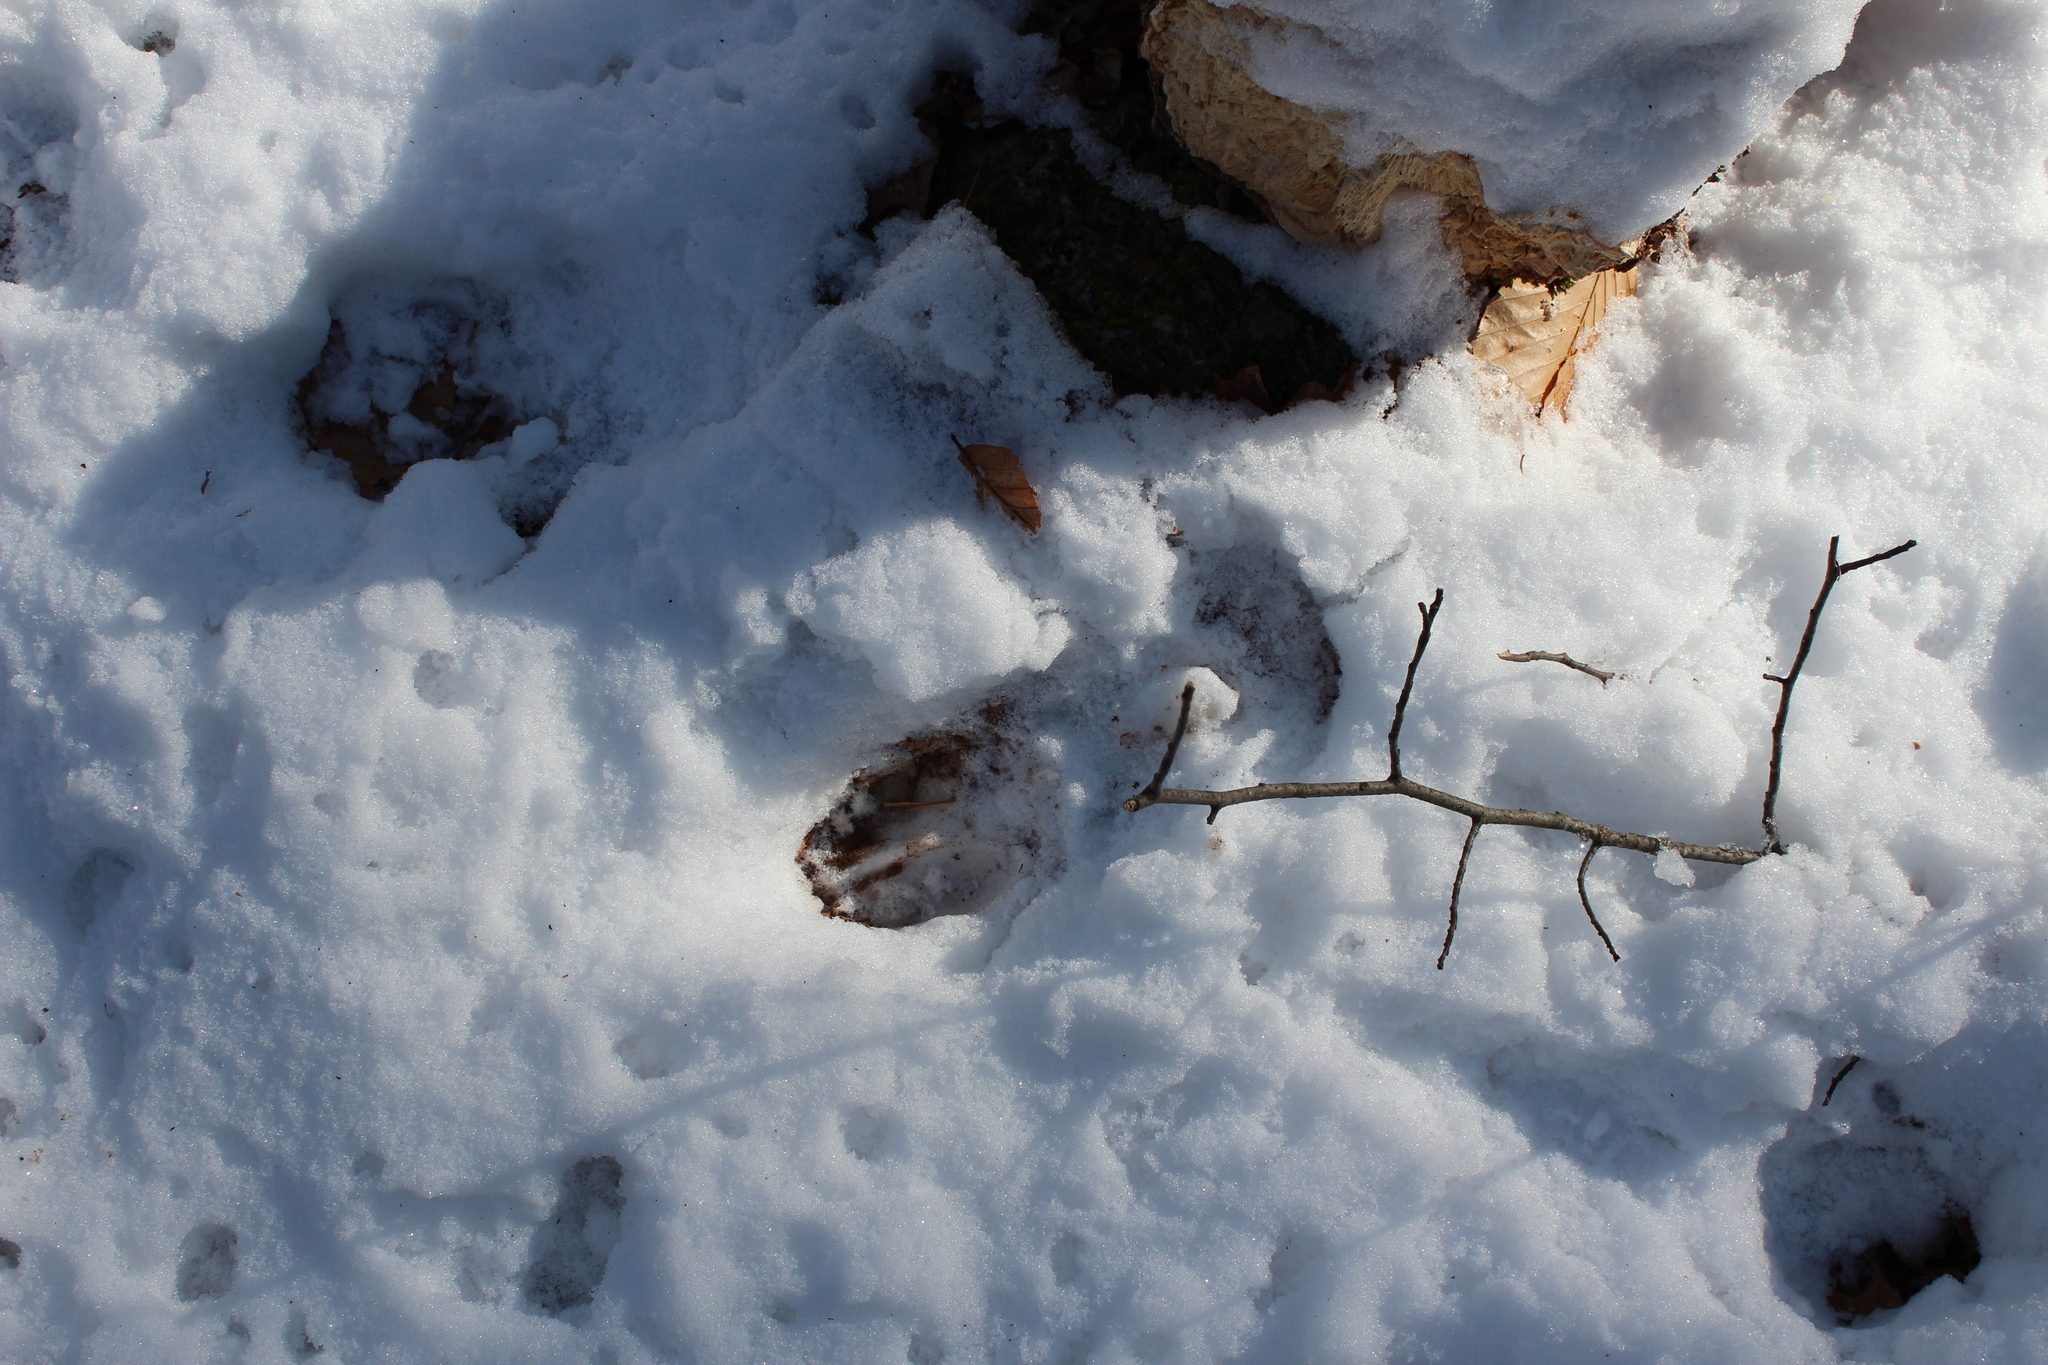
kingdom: Animalia
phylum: Chordata
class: Mammalia
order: Artiodactyla
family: Cervidae
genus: Odocoileus
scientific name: Odocoileus virginianus
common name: White-tailed deer
